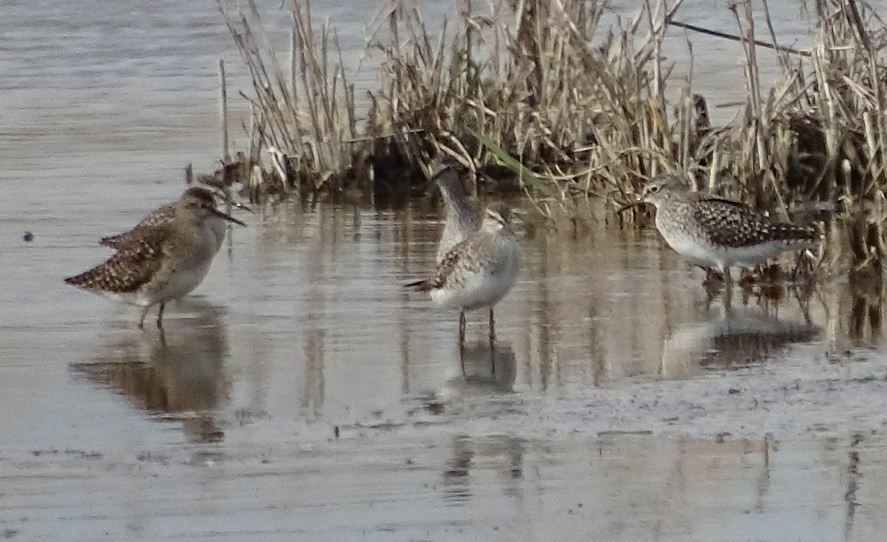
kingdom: Animalia
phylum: Chordata
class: Aves
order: Charadriiformes
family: Scolopacidae
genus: Tringa
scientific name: Tringa glareola
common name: Wood sandpiper
